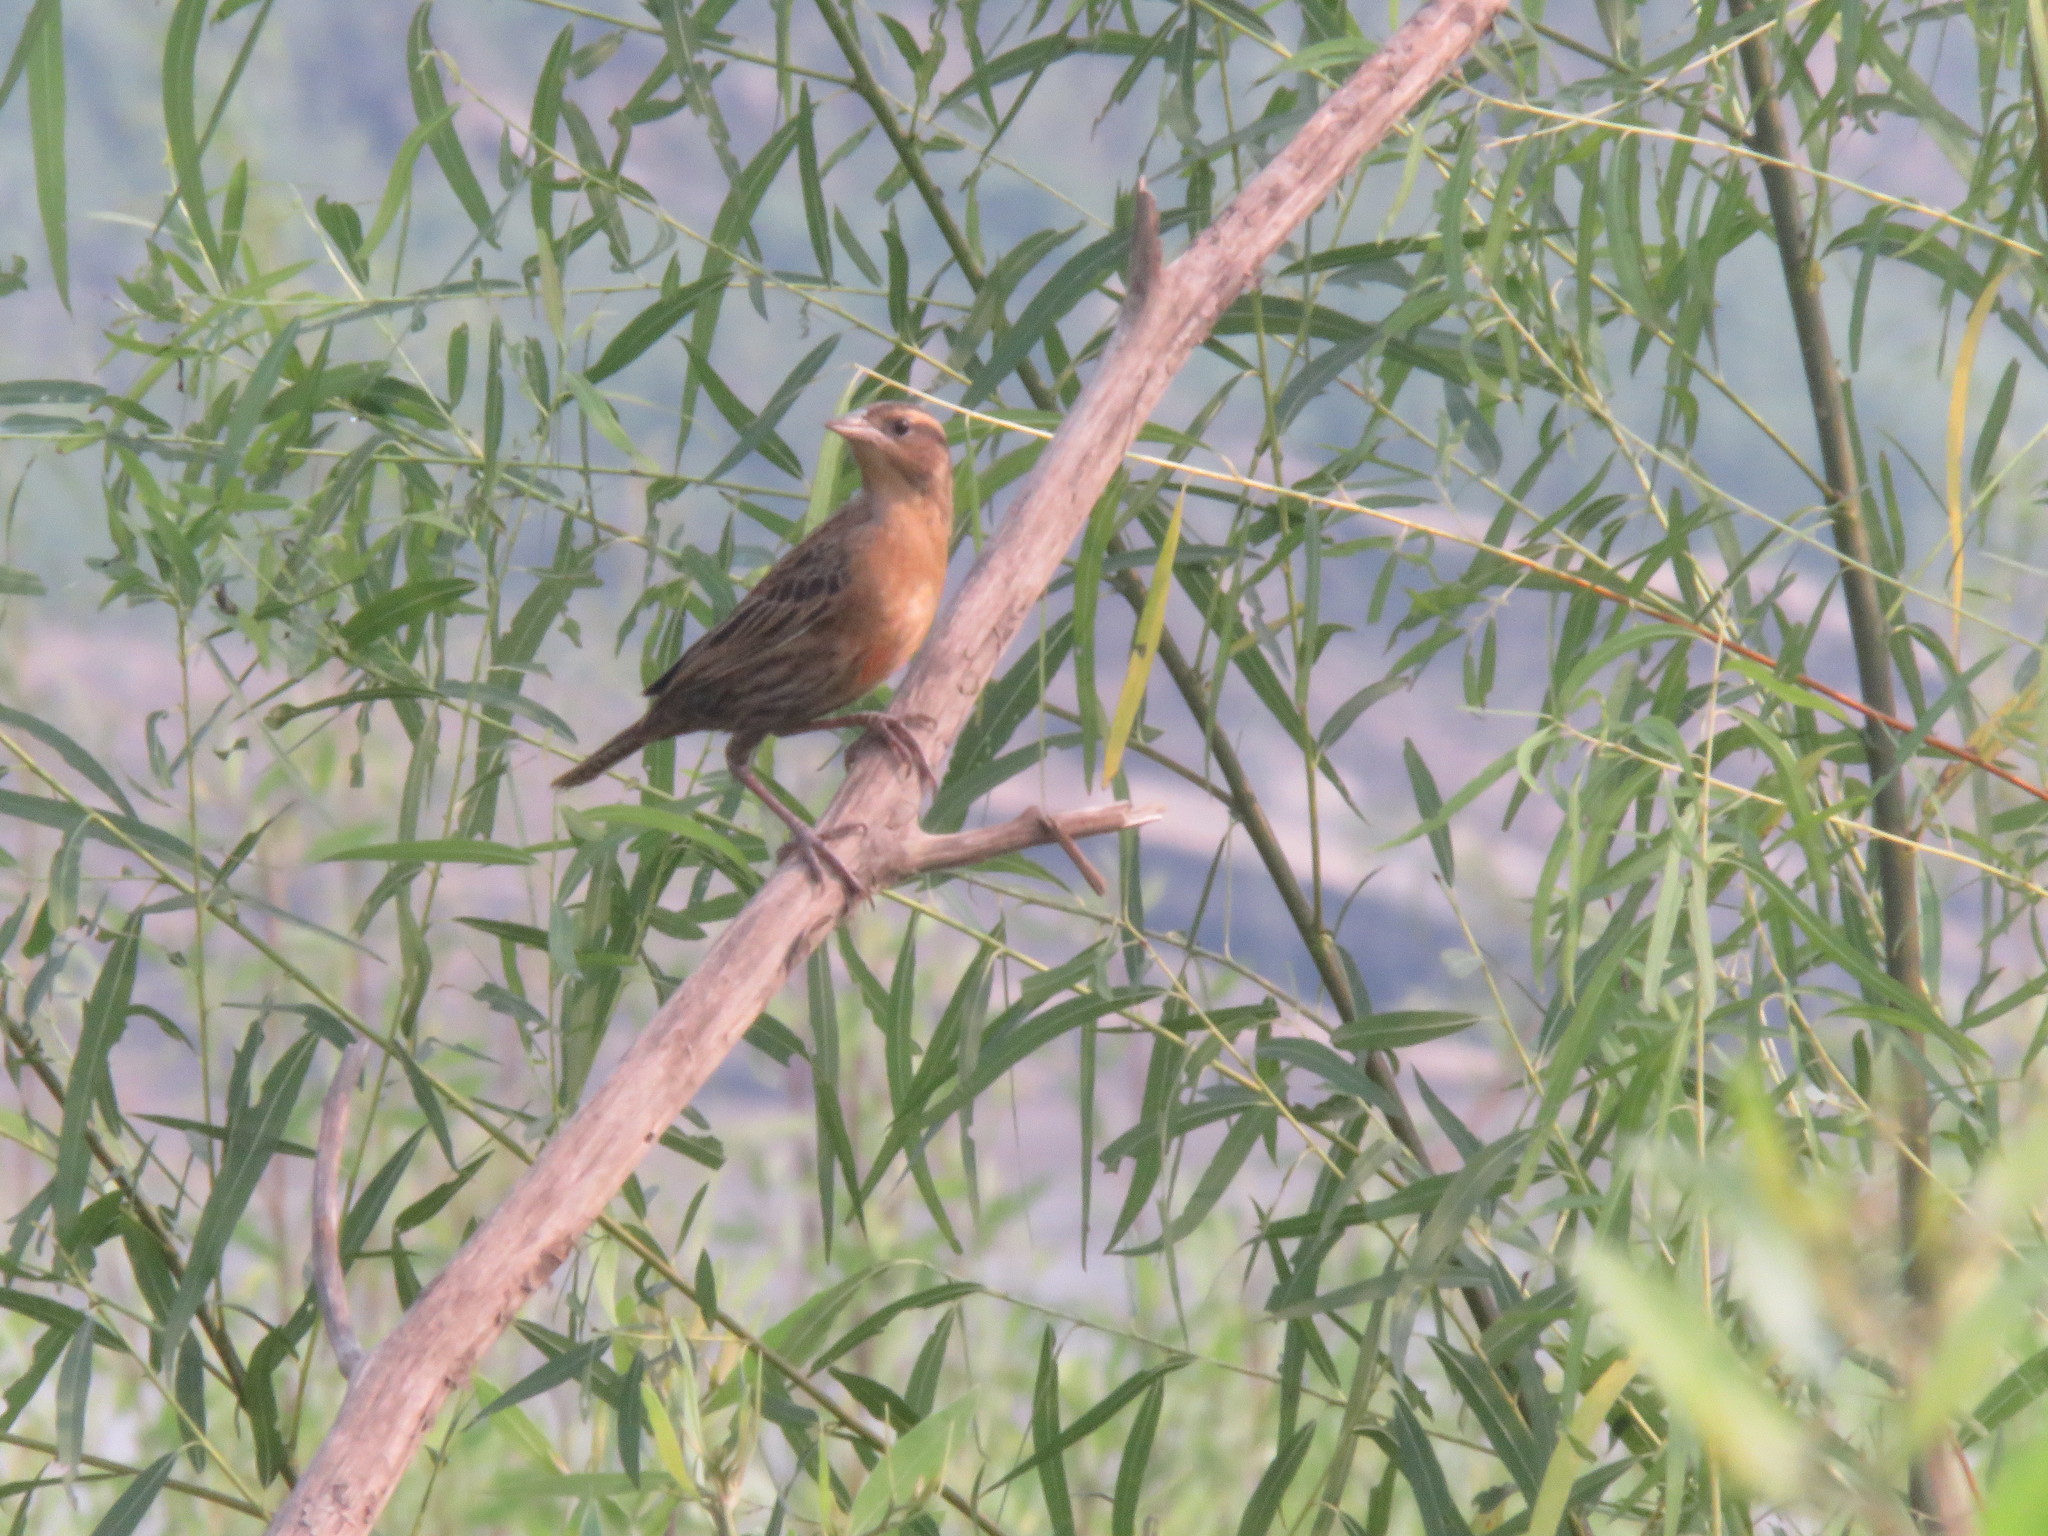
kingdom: Animalia
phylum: Chordata
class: Aves
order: Passeriformes
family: Icteridae
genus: Sturnella
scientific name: Sturnella superciliaris
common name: White-browed blackbird
